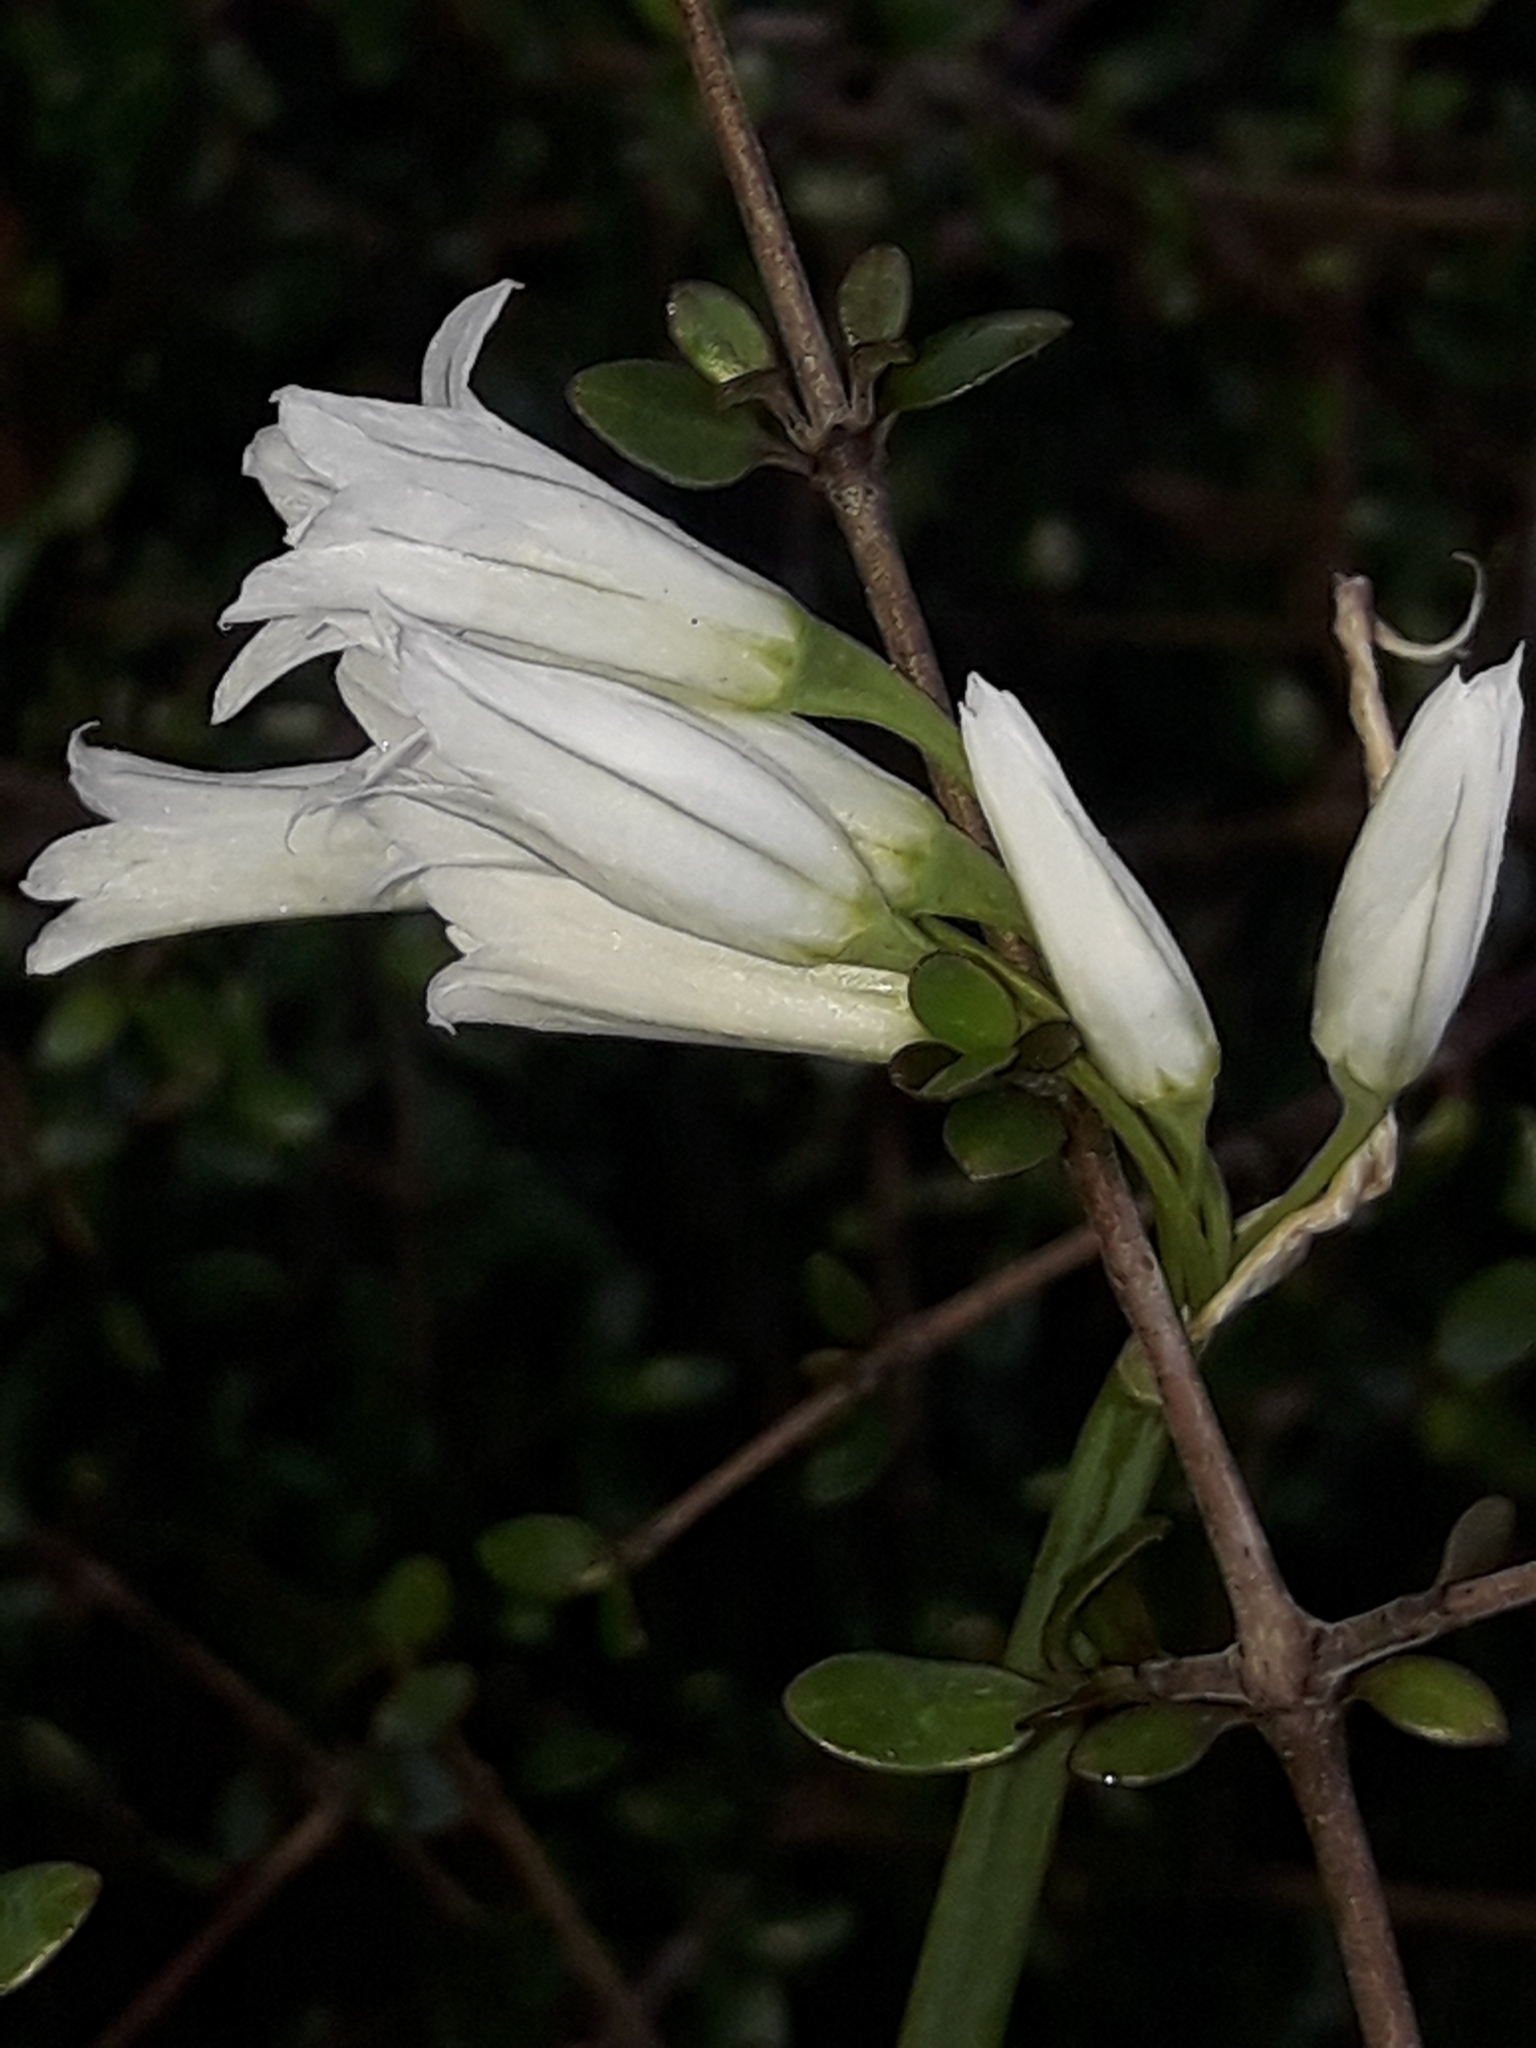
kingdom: Plantae
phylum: Tracheophyta
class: Liliopsida
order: Asparagales
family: Amaryllidaceae
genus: Allium
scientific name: Allium triquetrum
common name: Three-cornered garlic
